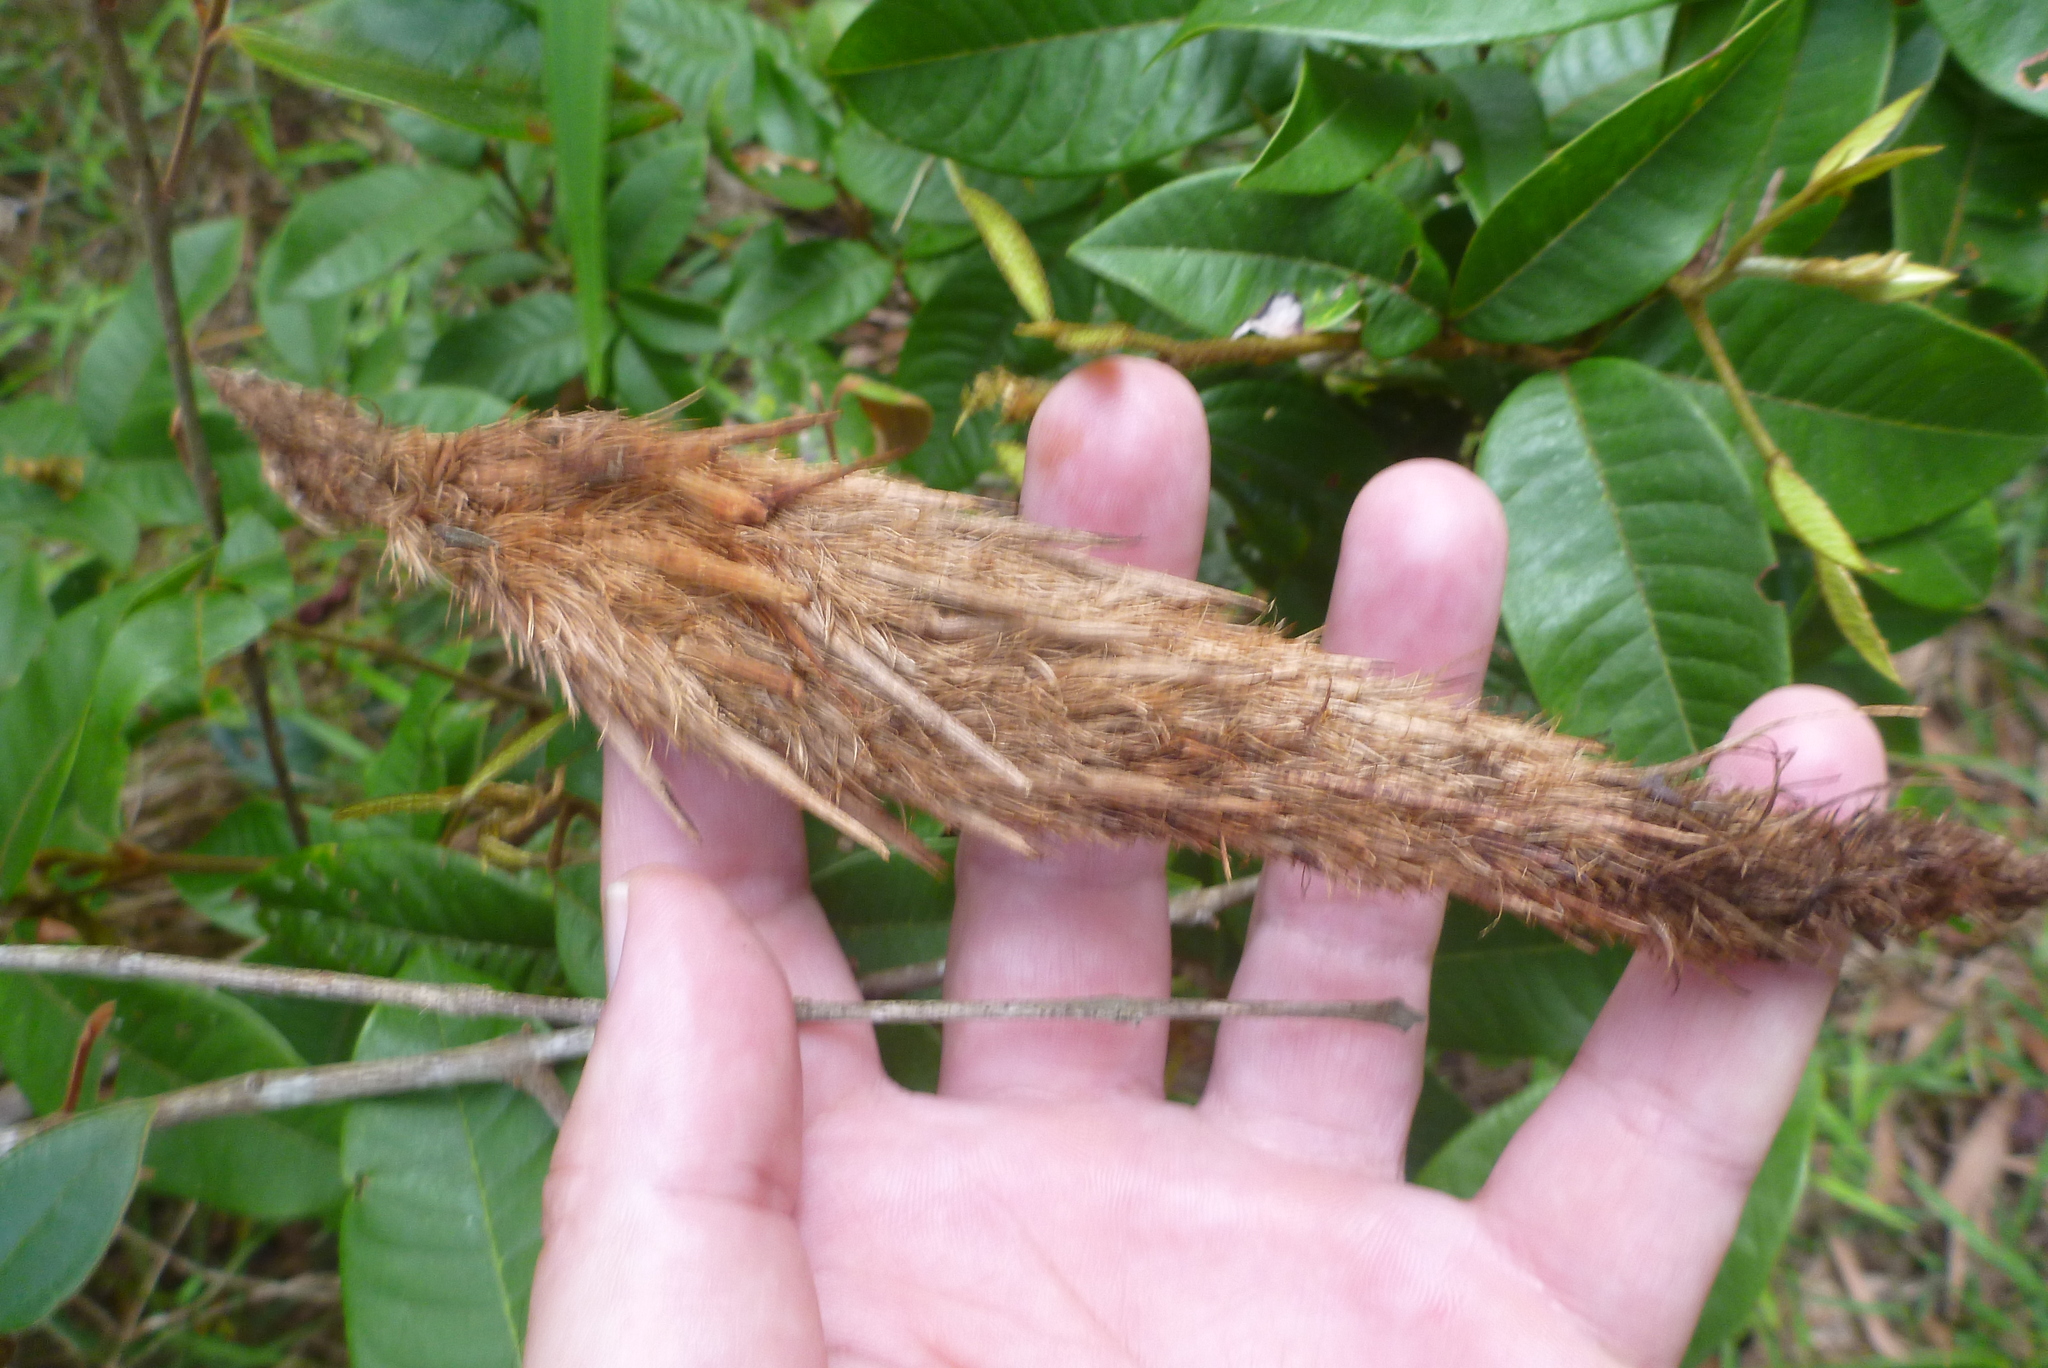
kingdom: Animalia
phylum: Arthropoda
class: Insecta
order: Lepidoptera
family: Psychidae
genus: Metura
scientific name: Metura aristocosma
